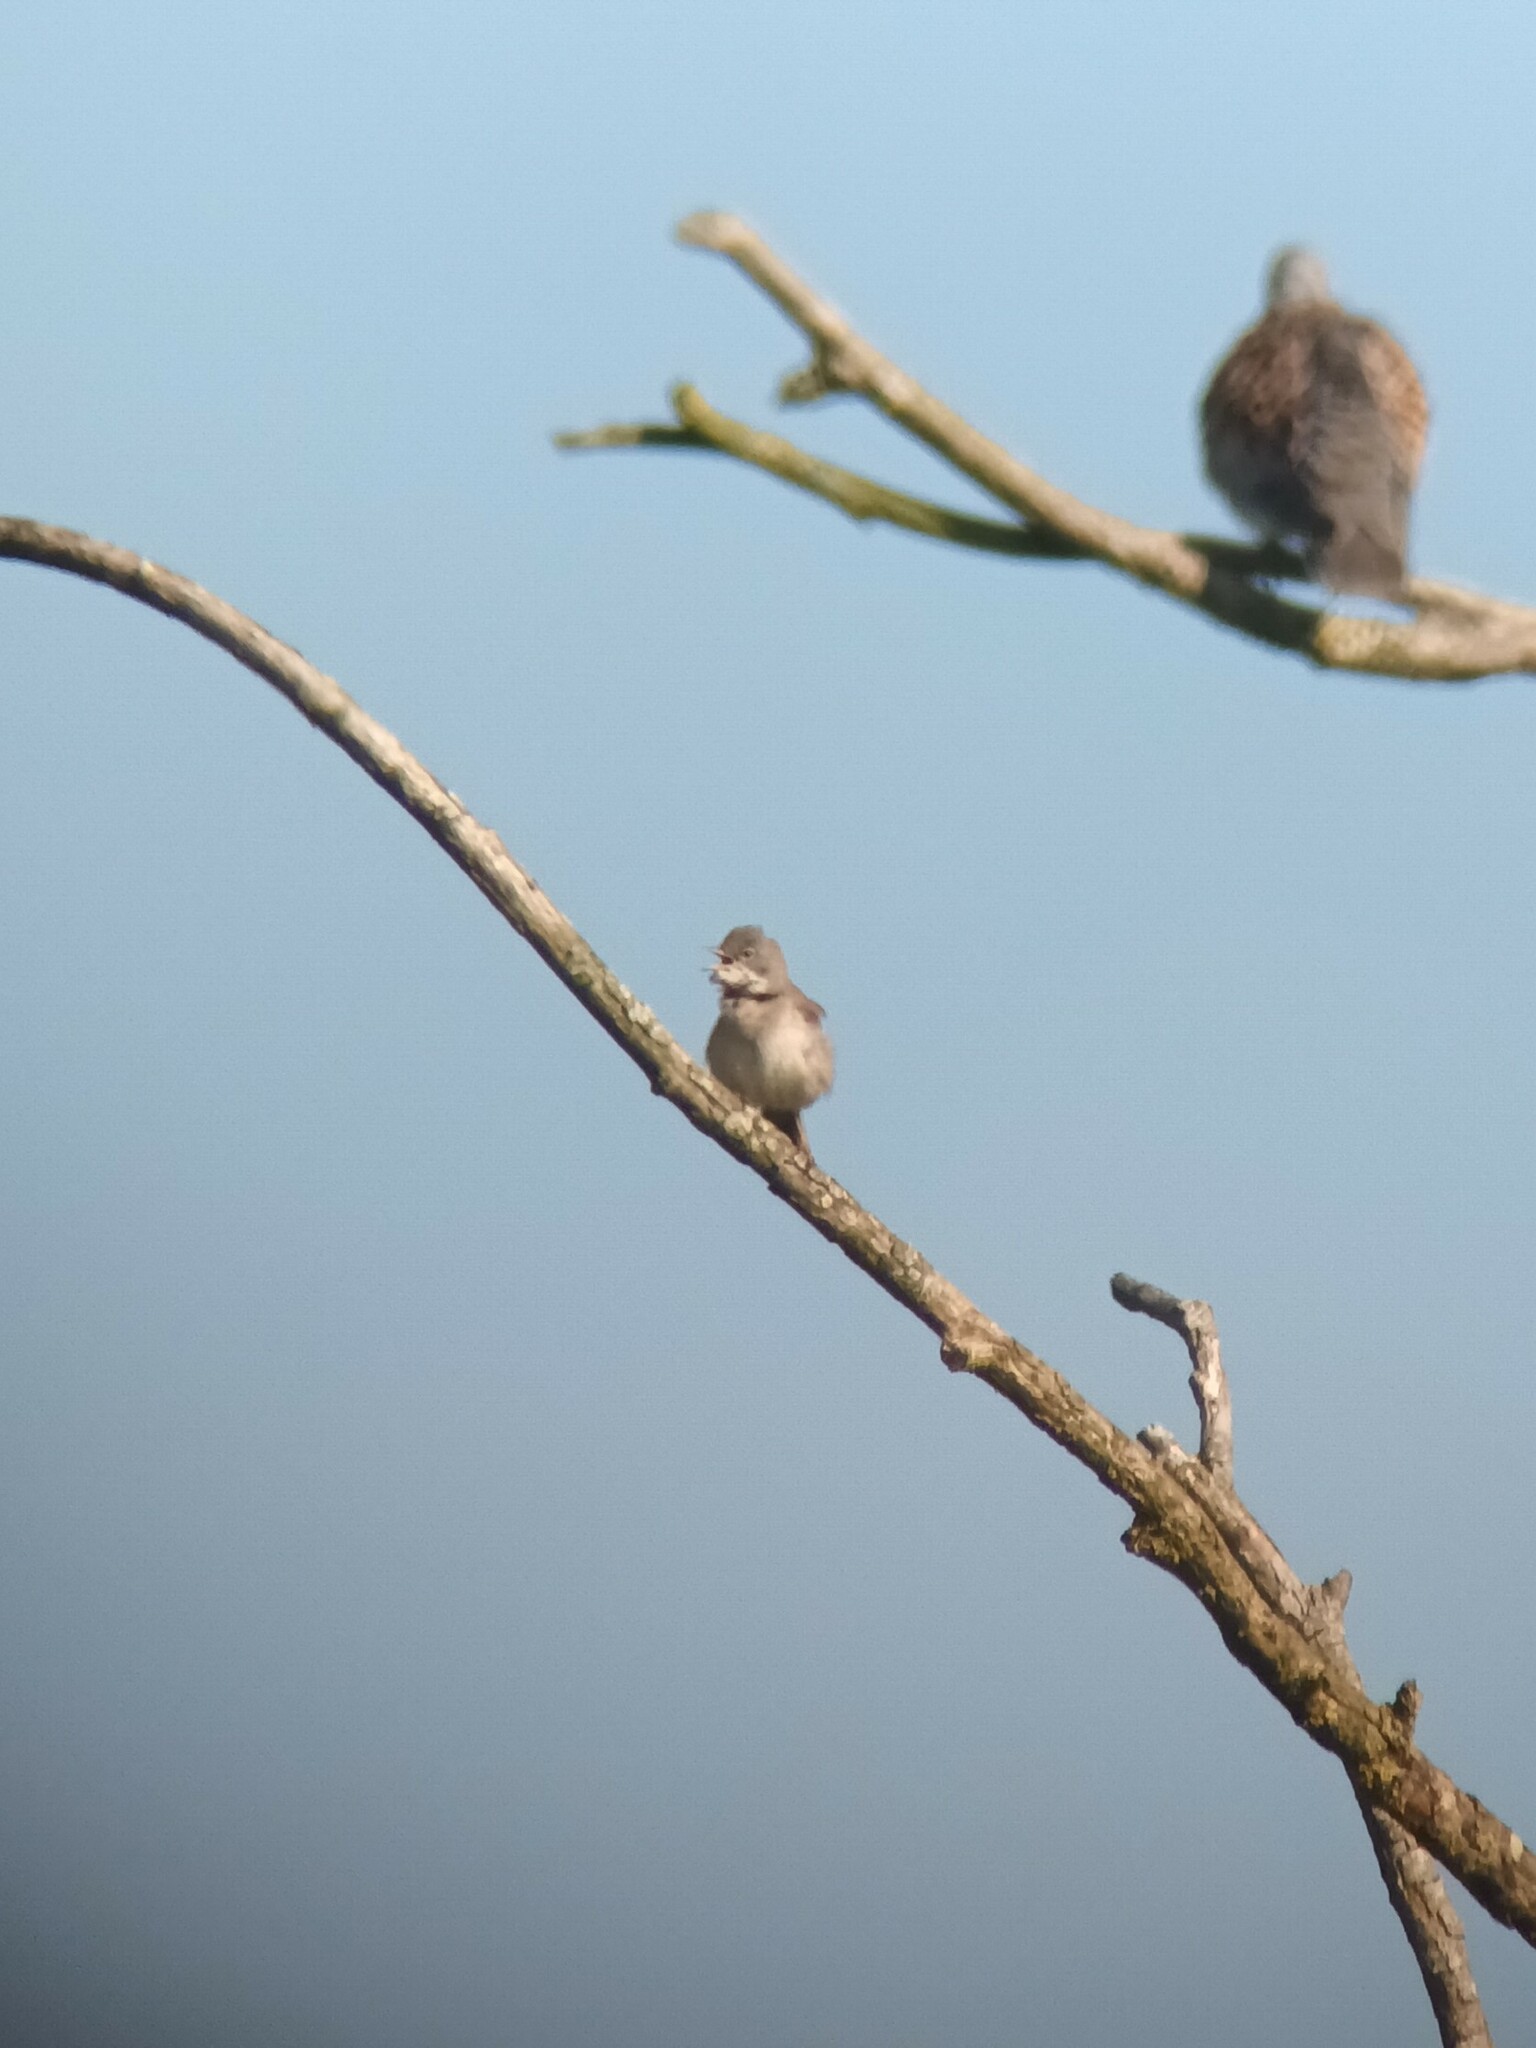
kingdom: Animalia
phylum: Chordata
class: Aves
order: Passeriformes
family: Sylviidae
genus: Sylvia
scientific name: Sylvia communis
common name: Common whitethroat
